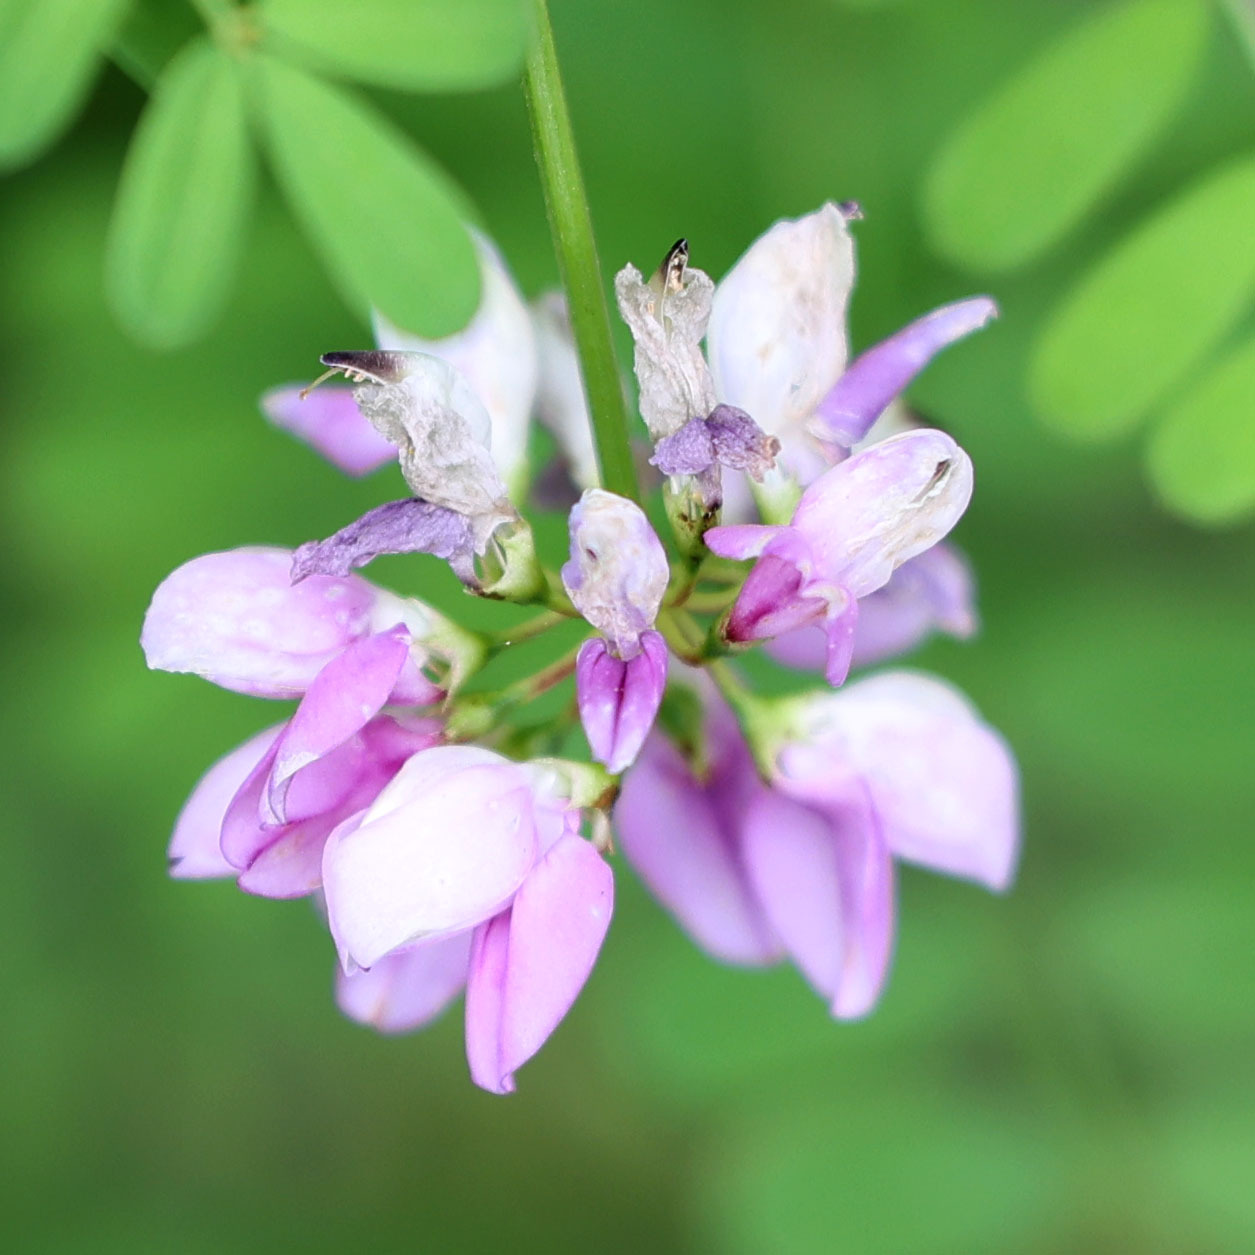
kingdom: Plantae
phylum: Tracheophyta
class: Magnoliopsida
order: Fabales
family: Fabaceae
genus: Coronilla
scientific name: Coronilla varia
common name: Crownvetch
